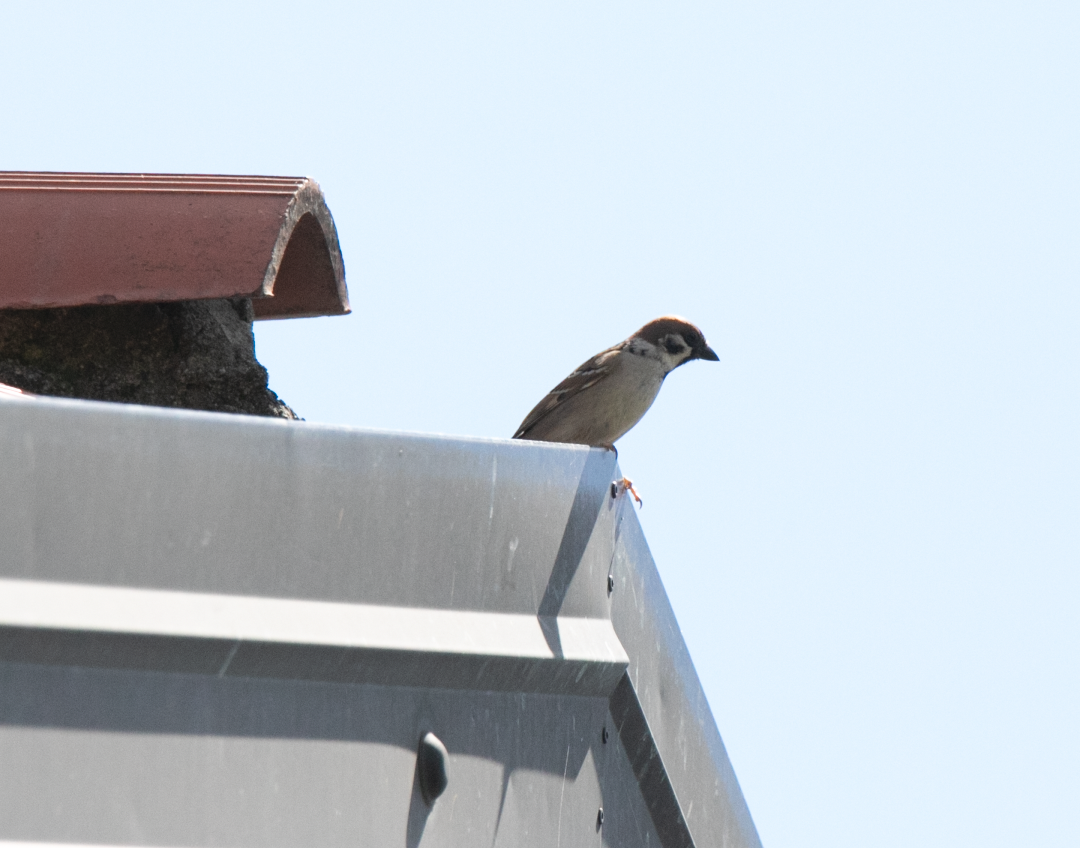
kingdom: Animalia
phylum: Chordata
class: Aves
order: Passeriformes
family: Passeridae
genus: Passer
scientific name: Passer montanus
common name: Eurasian tree sparrow
